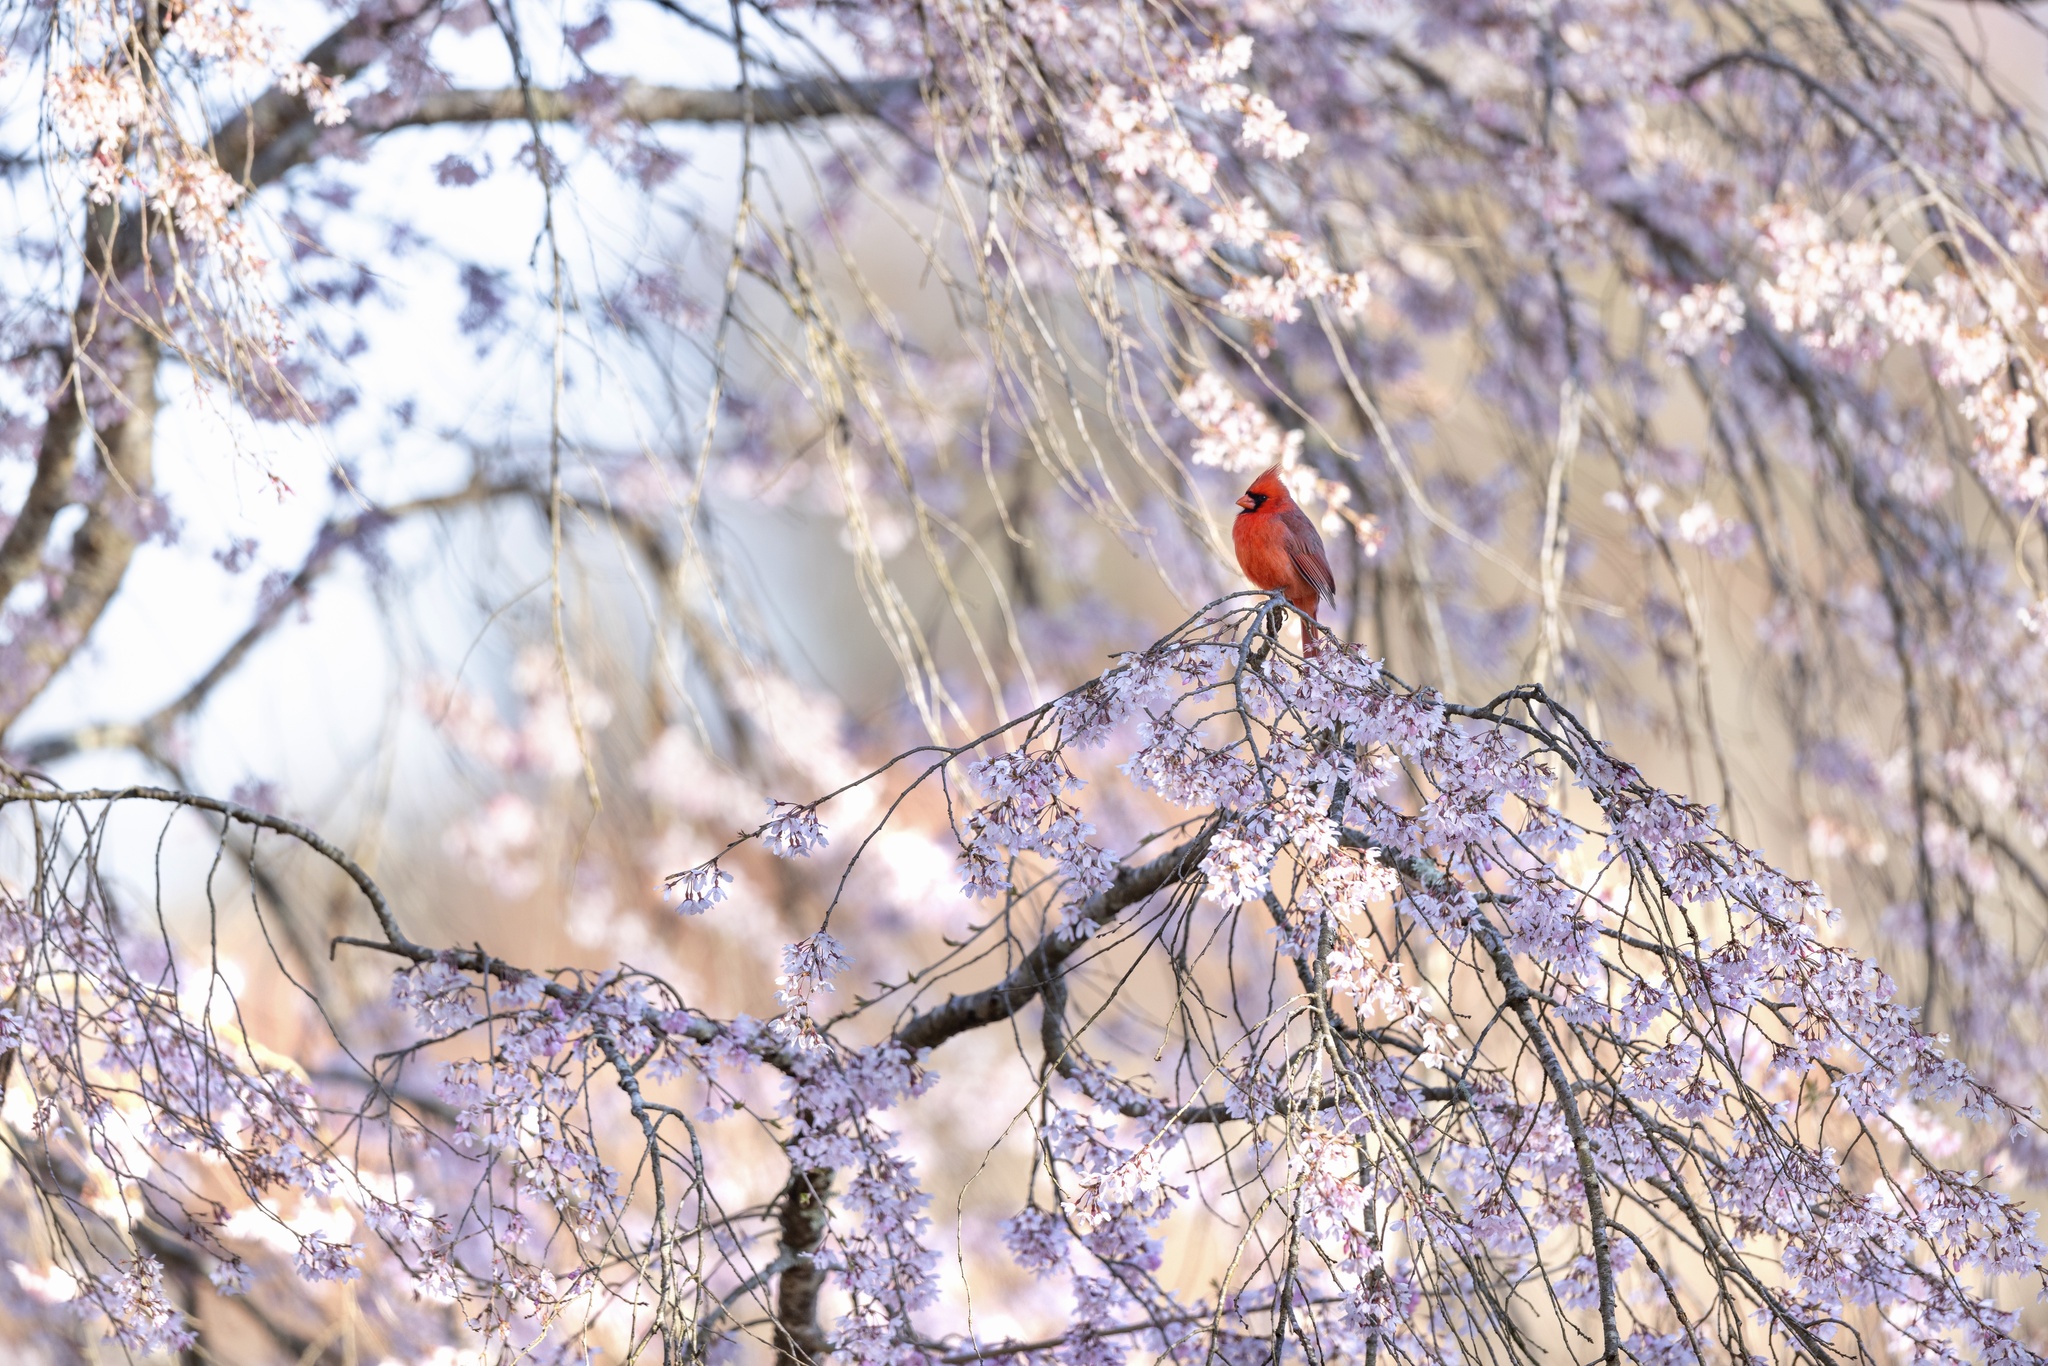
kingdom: Animalia
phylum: Chordata
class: Aves
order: Passeriformes
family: Cardinalidae
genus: Cardinalis
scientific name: Cardinalis cardinalis
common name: Northern cardinal
